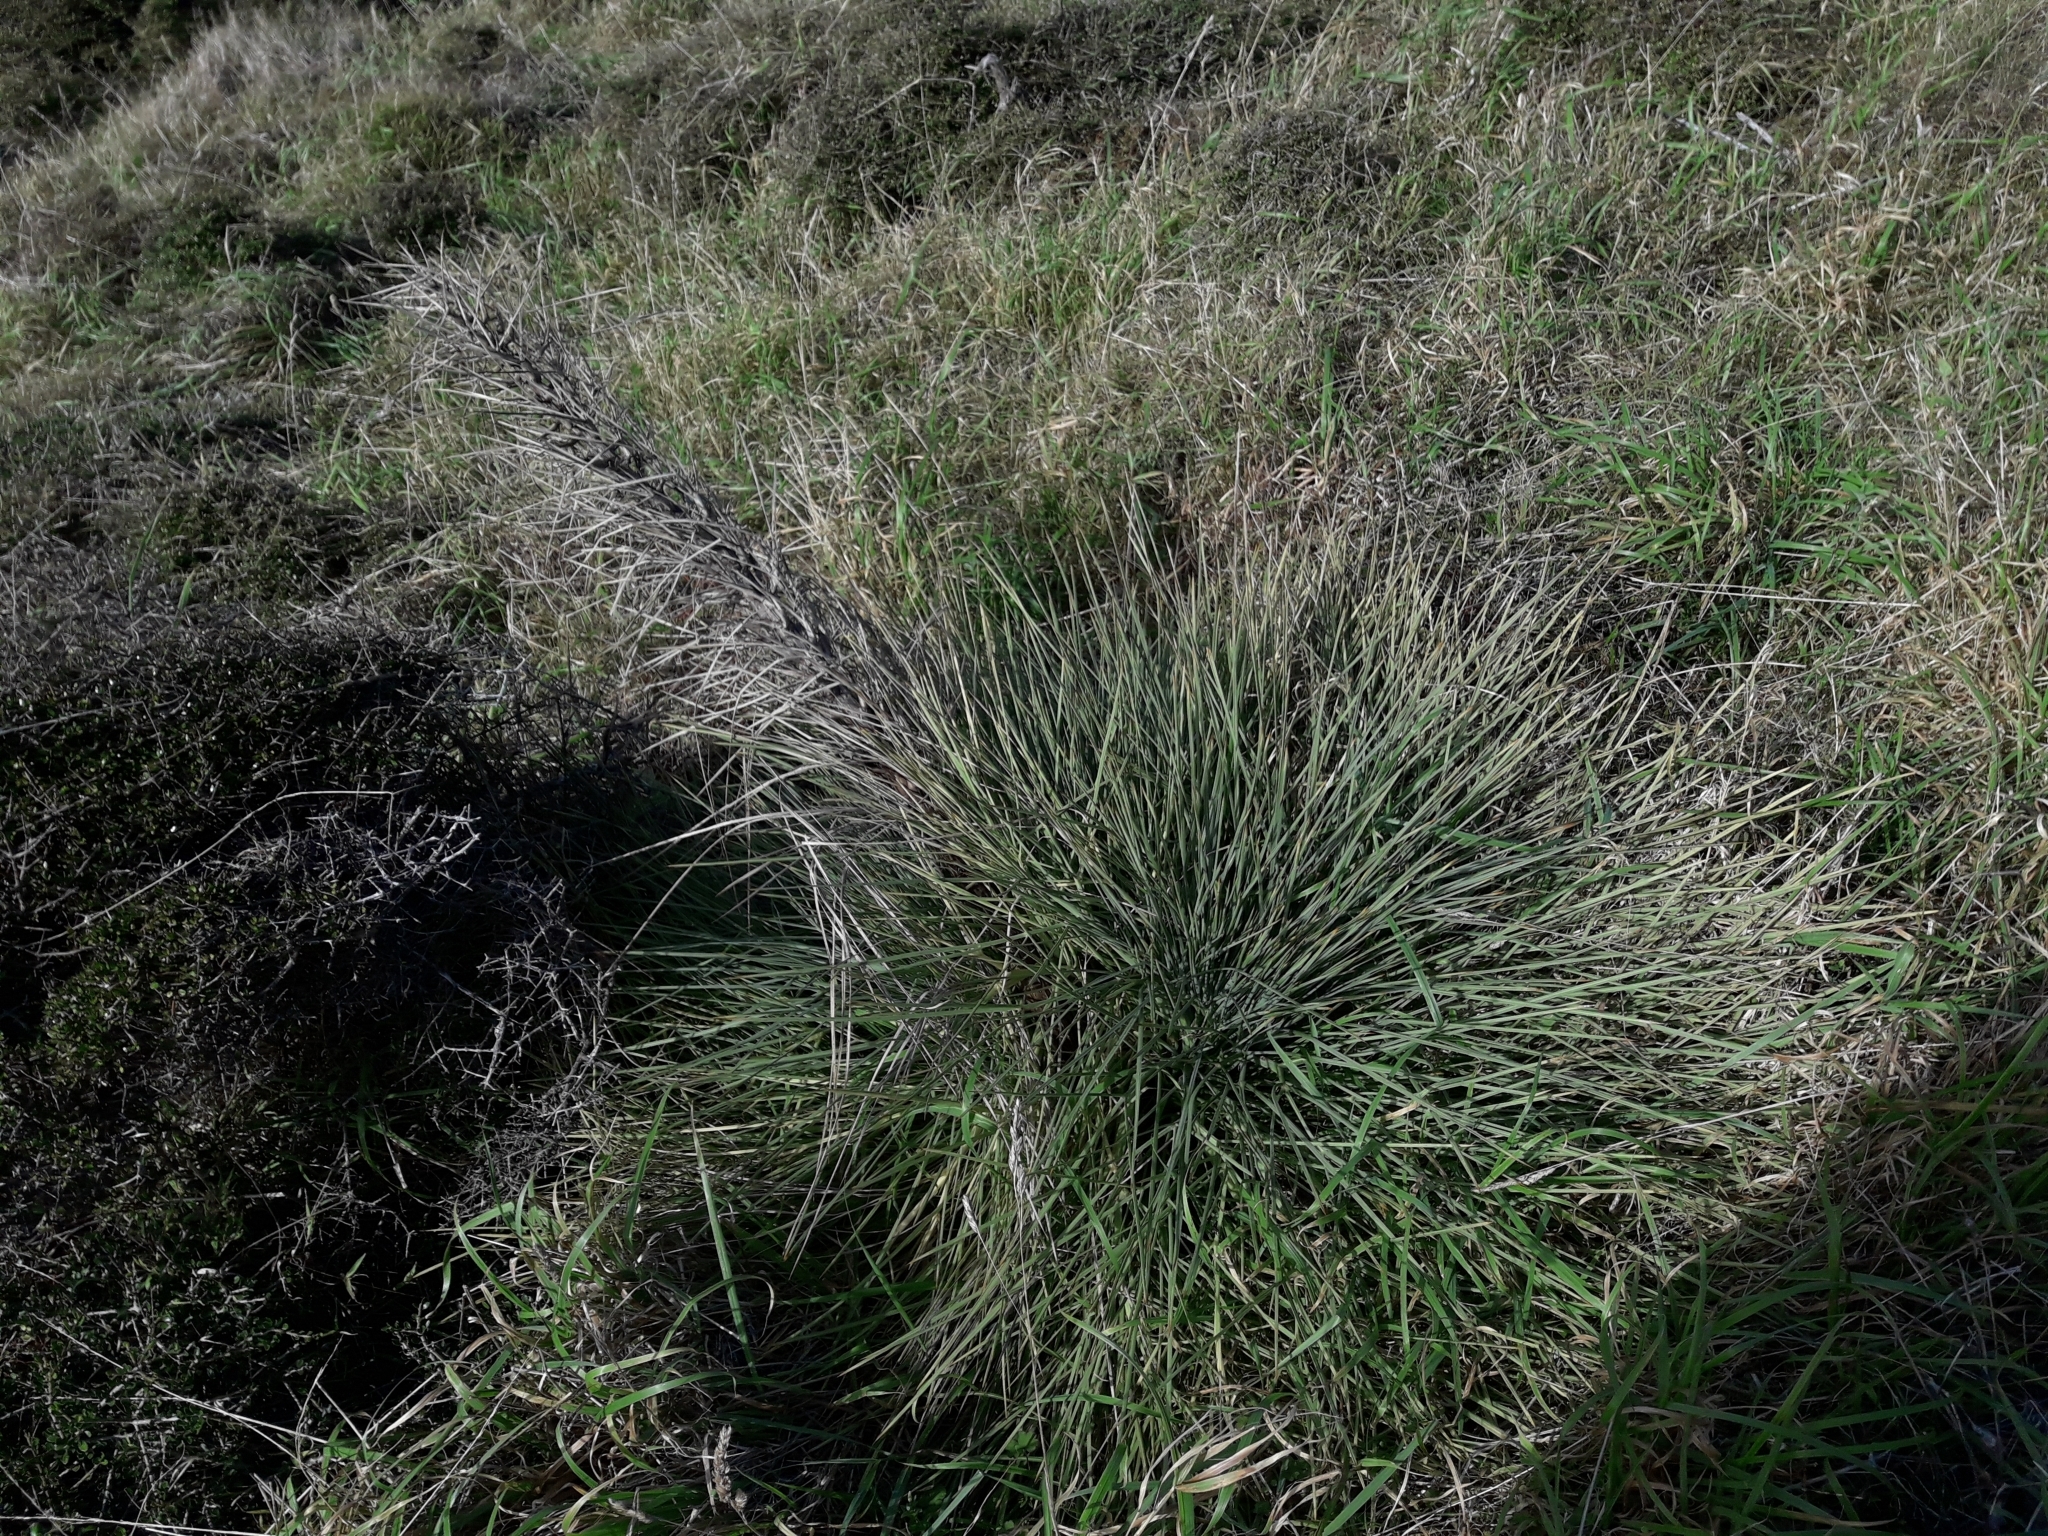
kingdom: Plantae
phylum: Tracheophyta
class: Magnoliopsida
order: Apiales
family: Apiaceae
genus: Aciphylla
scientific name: Aciphylla squarrosa
